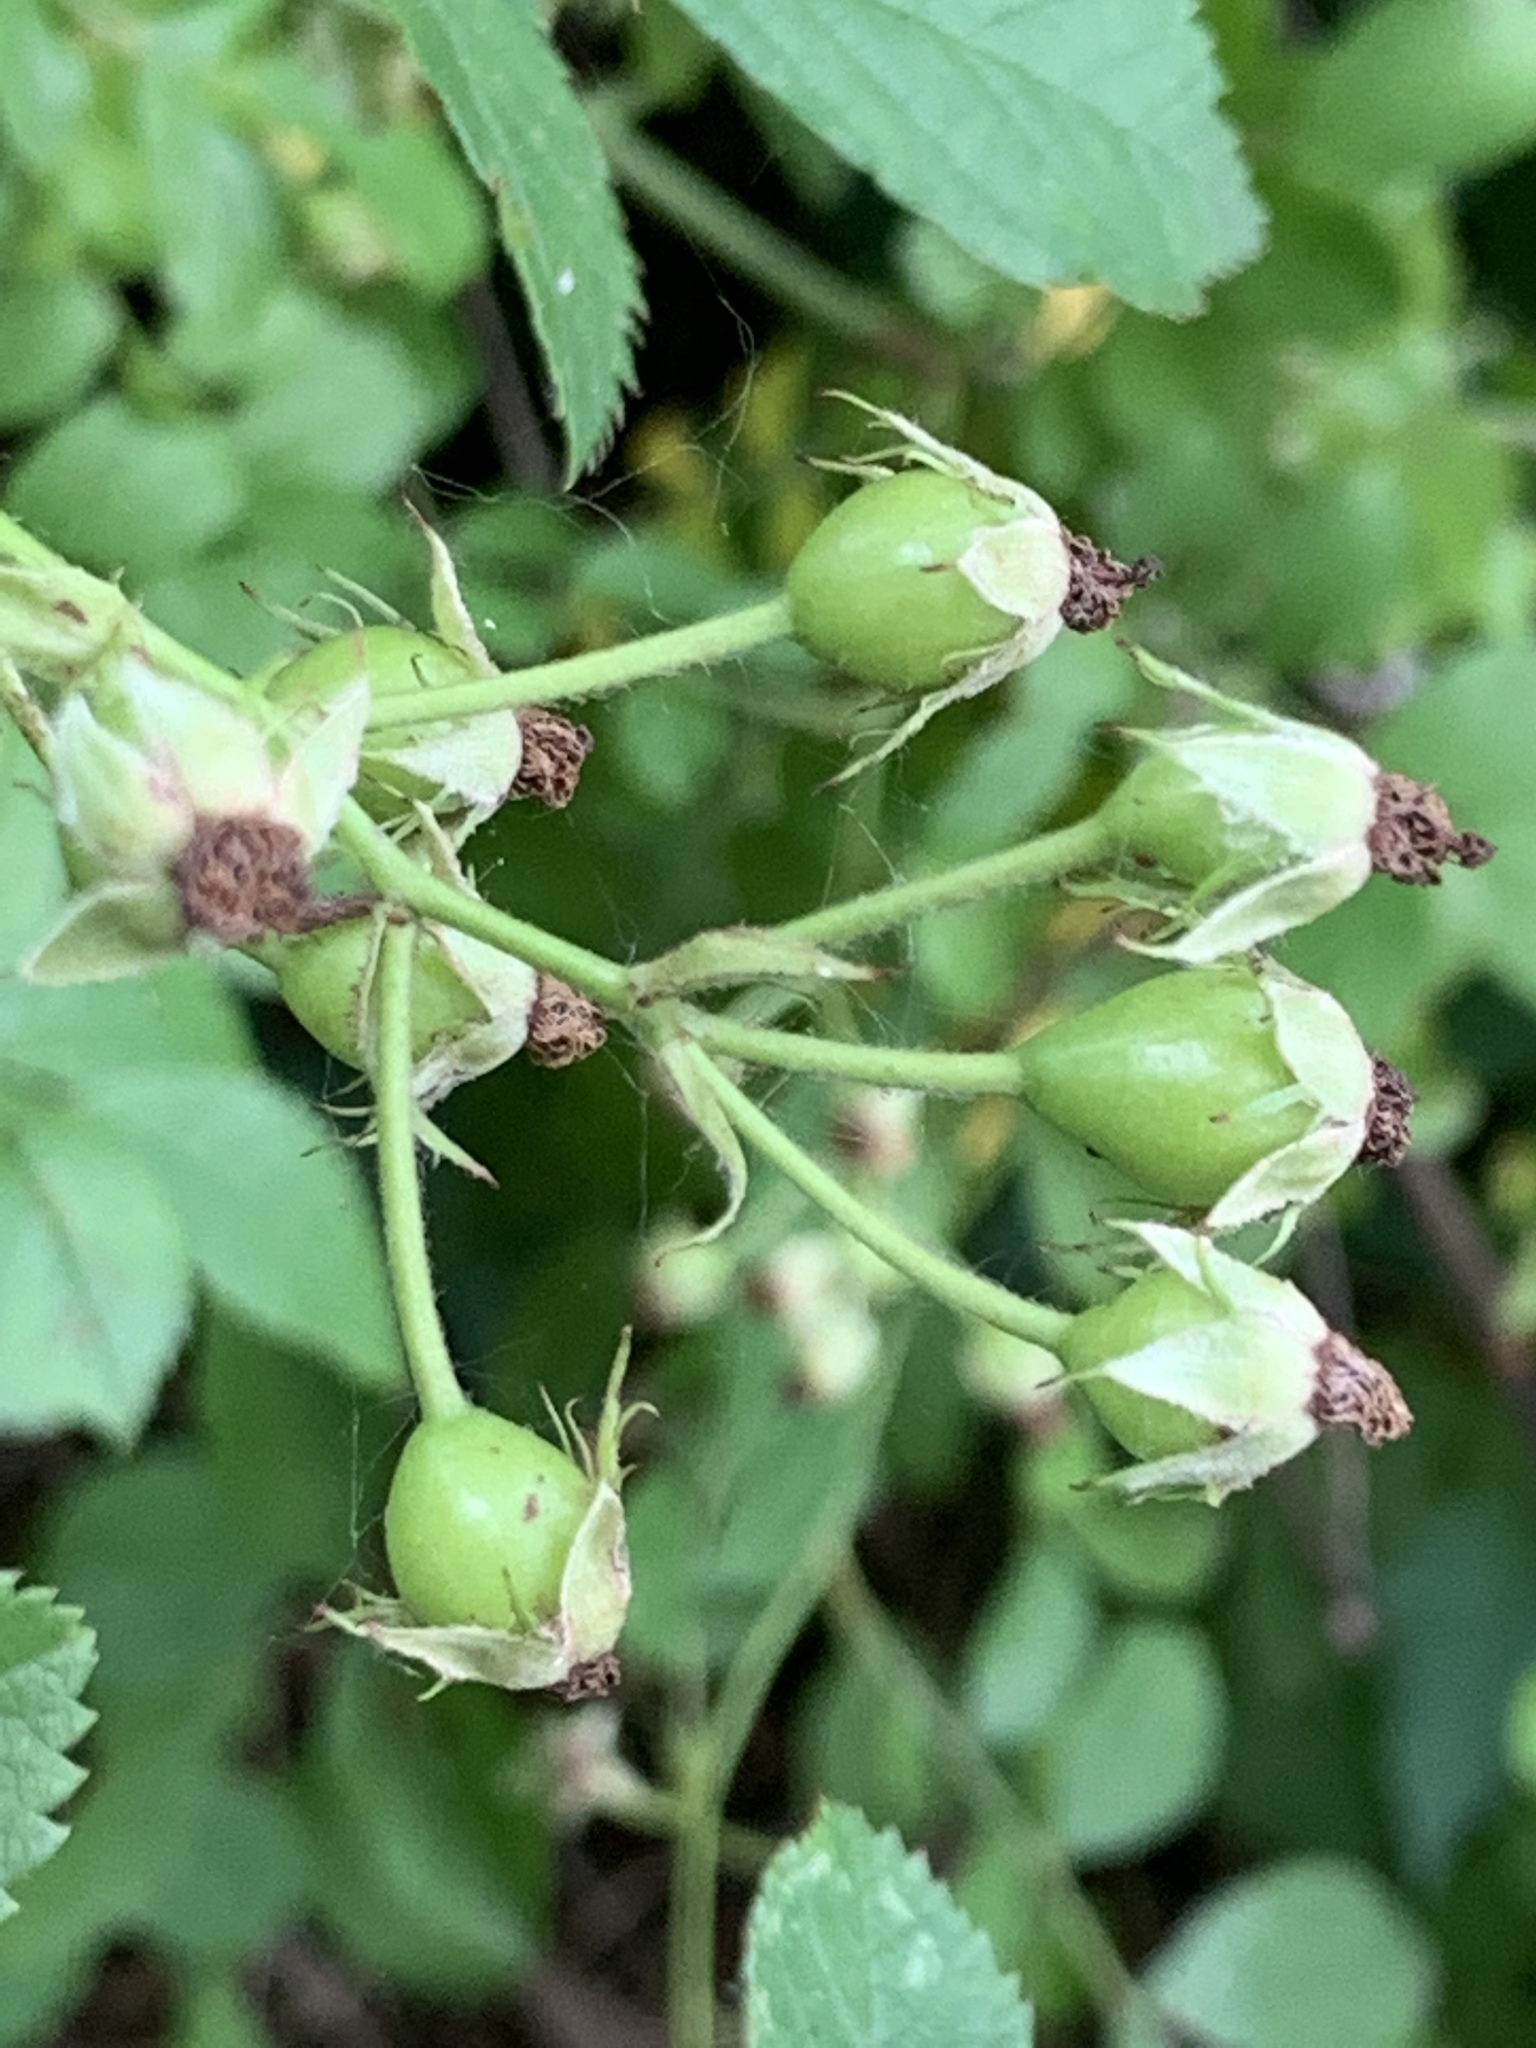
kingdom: Plantae
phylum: Tracheophyta
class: Magnoliopsida
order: Rosales
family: Rosaceae
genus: Rosa
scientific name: Rosa multiflora
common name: Multiflora rose
